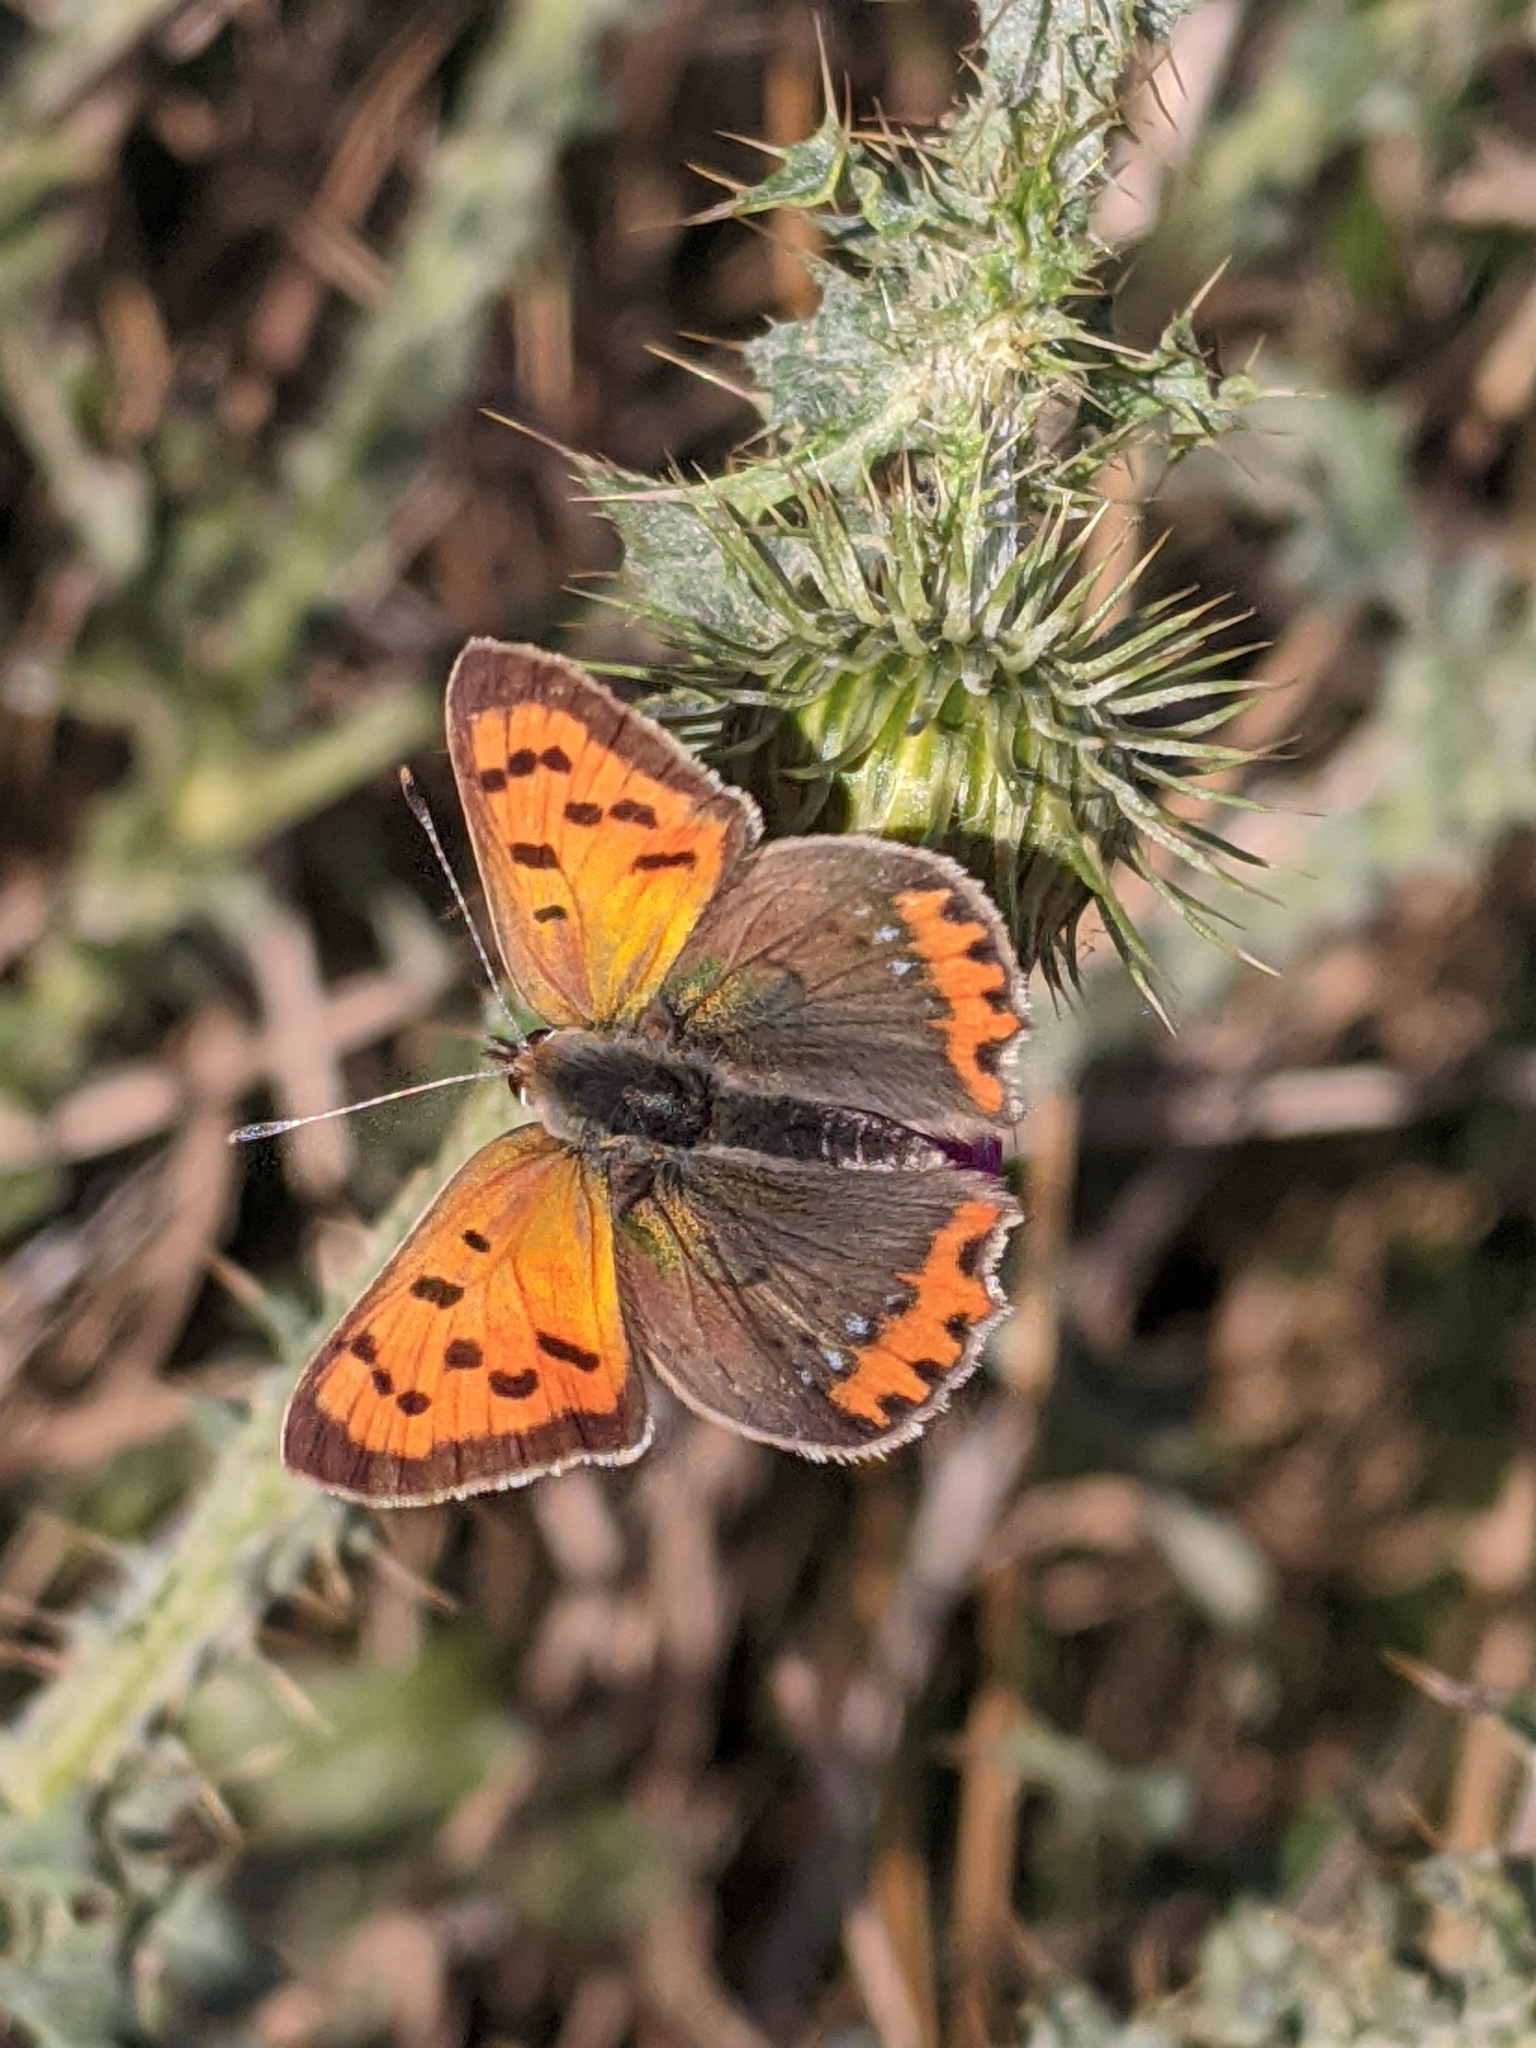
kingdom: Animalia
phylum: Arthropoda
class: Insecta
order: Lepidoptera
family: Lycaenidae
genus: Lycaena
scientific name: Lycaena phlaeas
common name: Small copper
